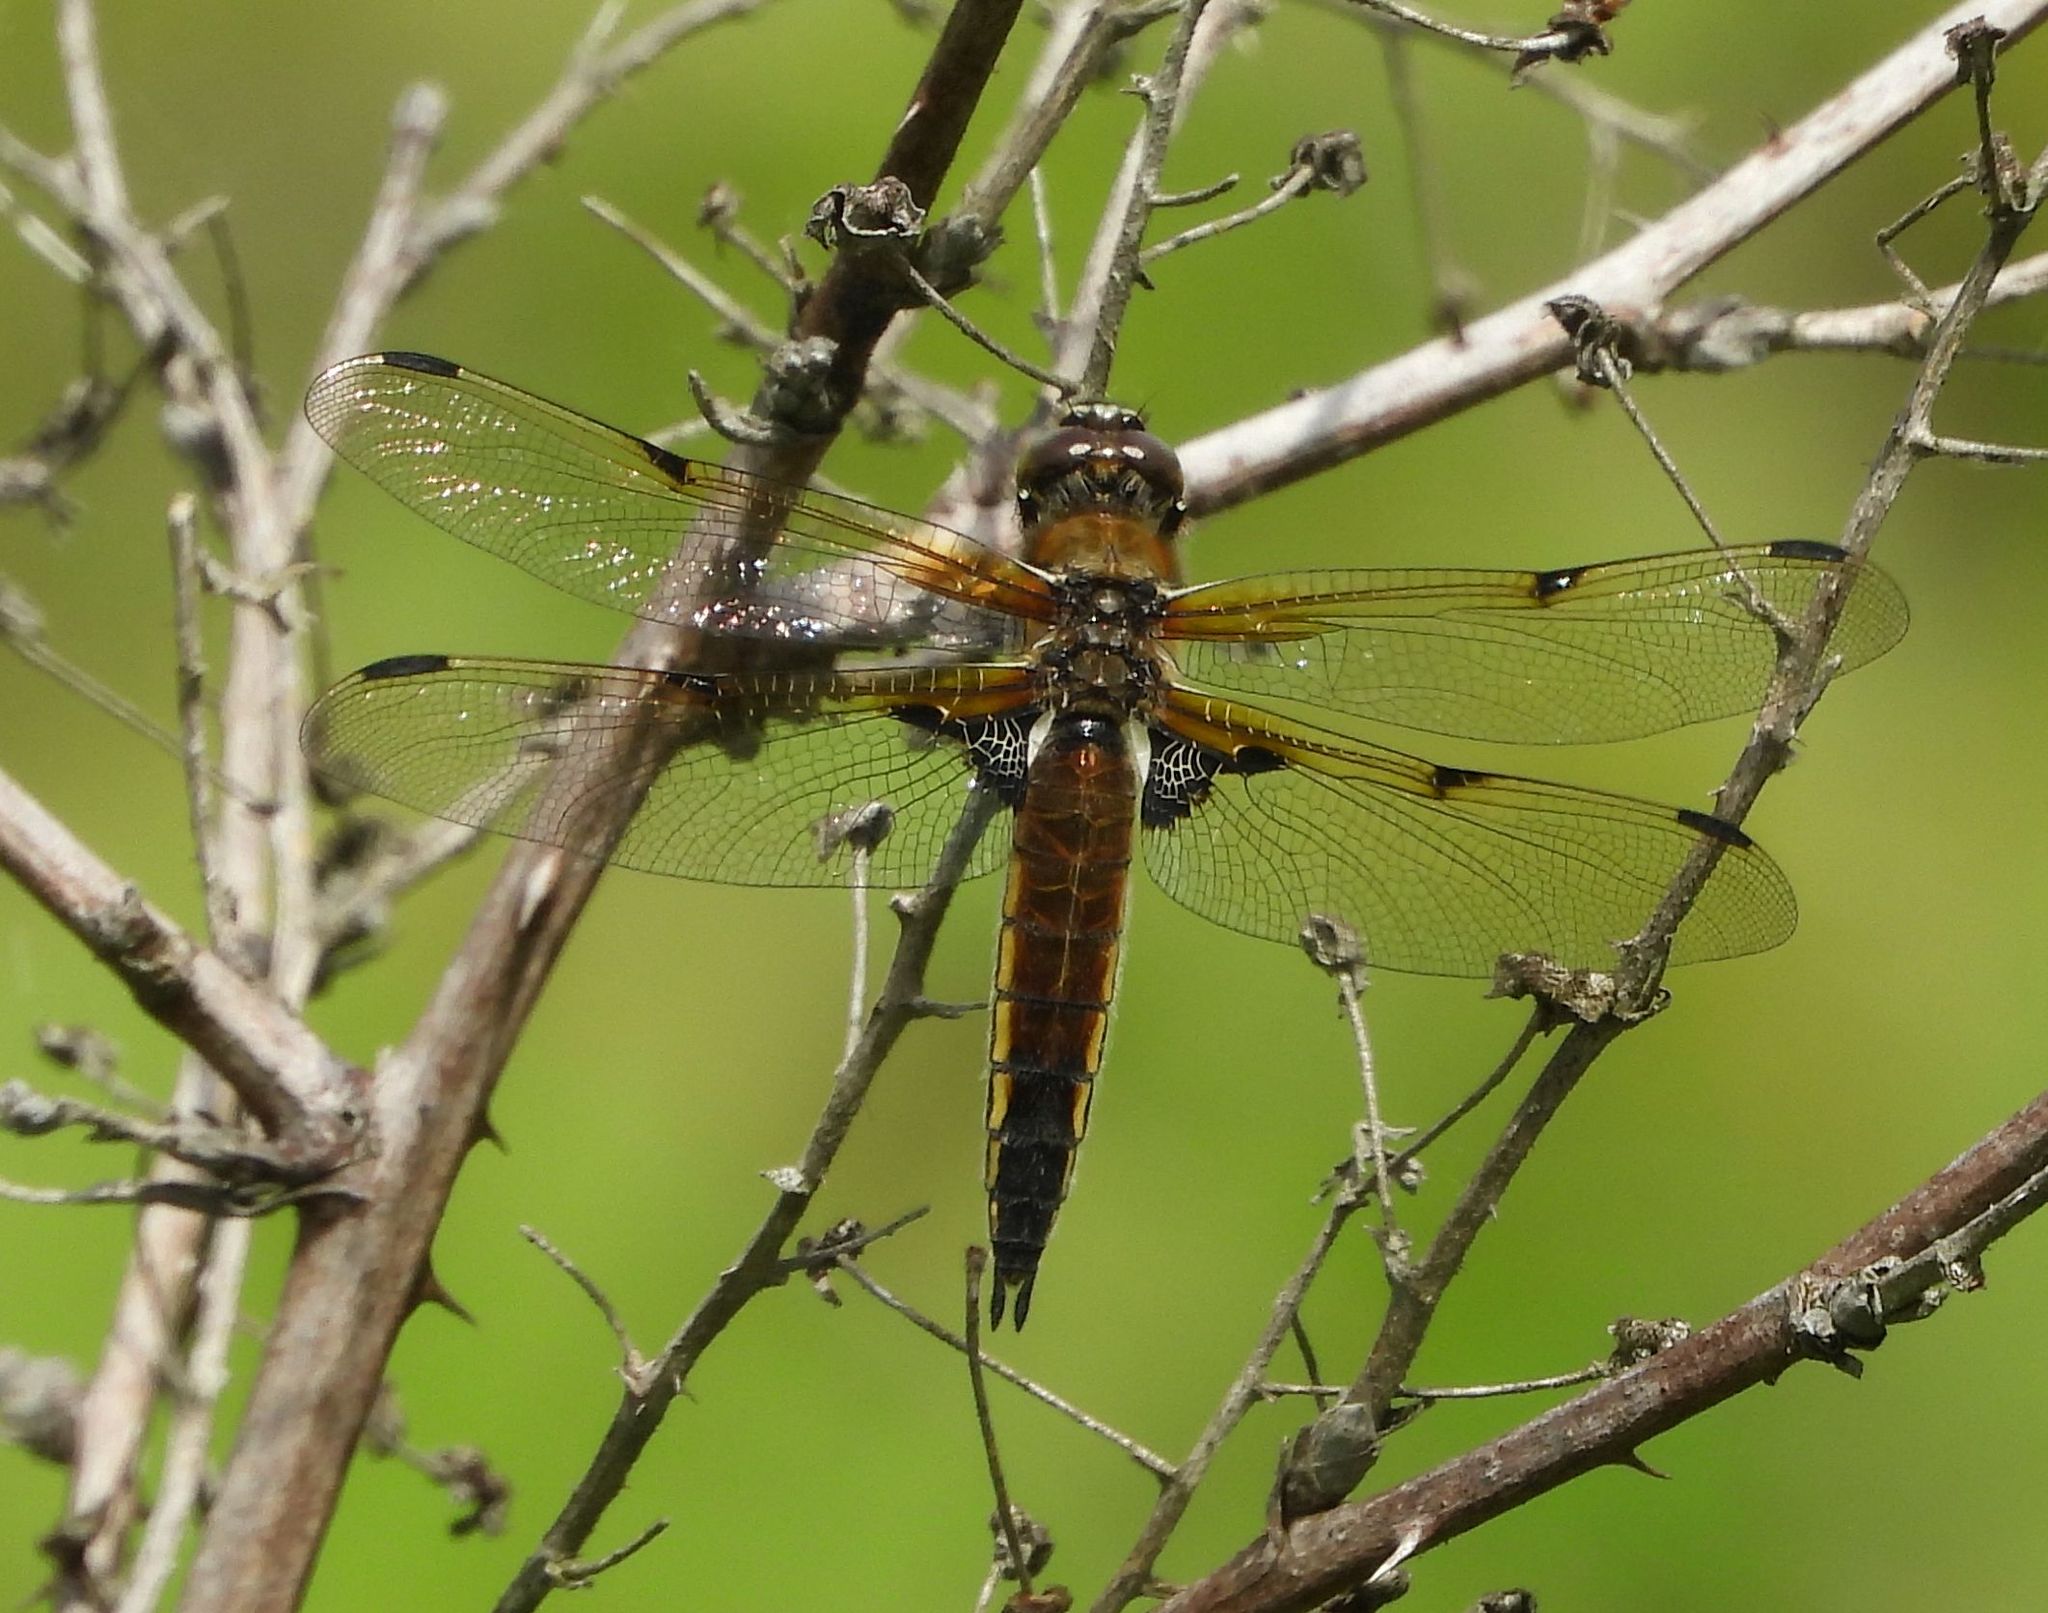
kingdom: Animalia
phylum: Arthropoda
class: Insecta
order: Odonata
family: Libellulidae
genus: Libellula
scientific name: Libellula quadrimaculata
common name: Four-spotted chaser
